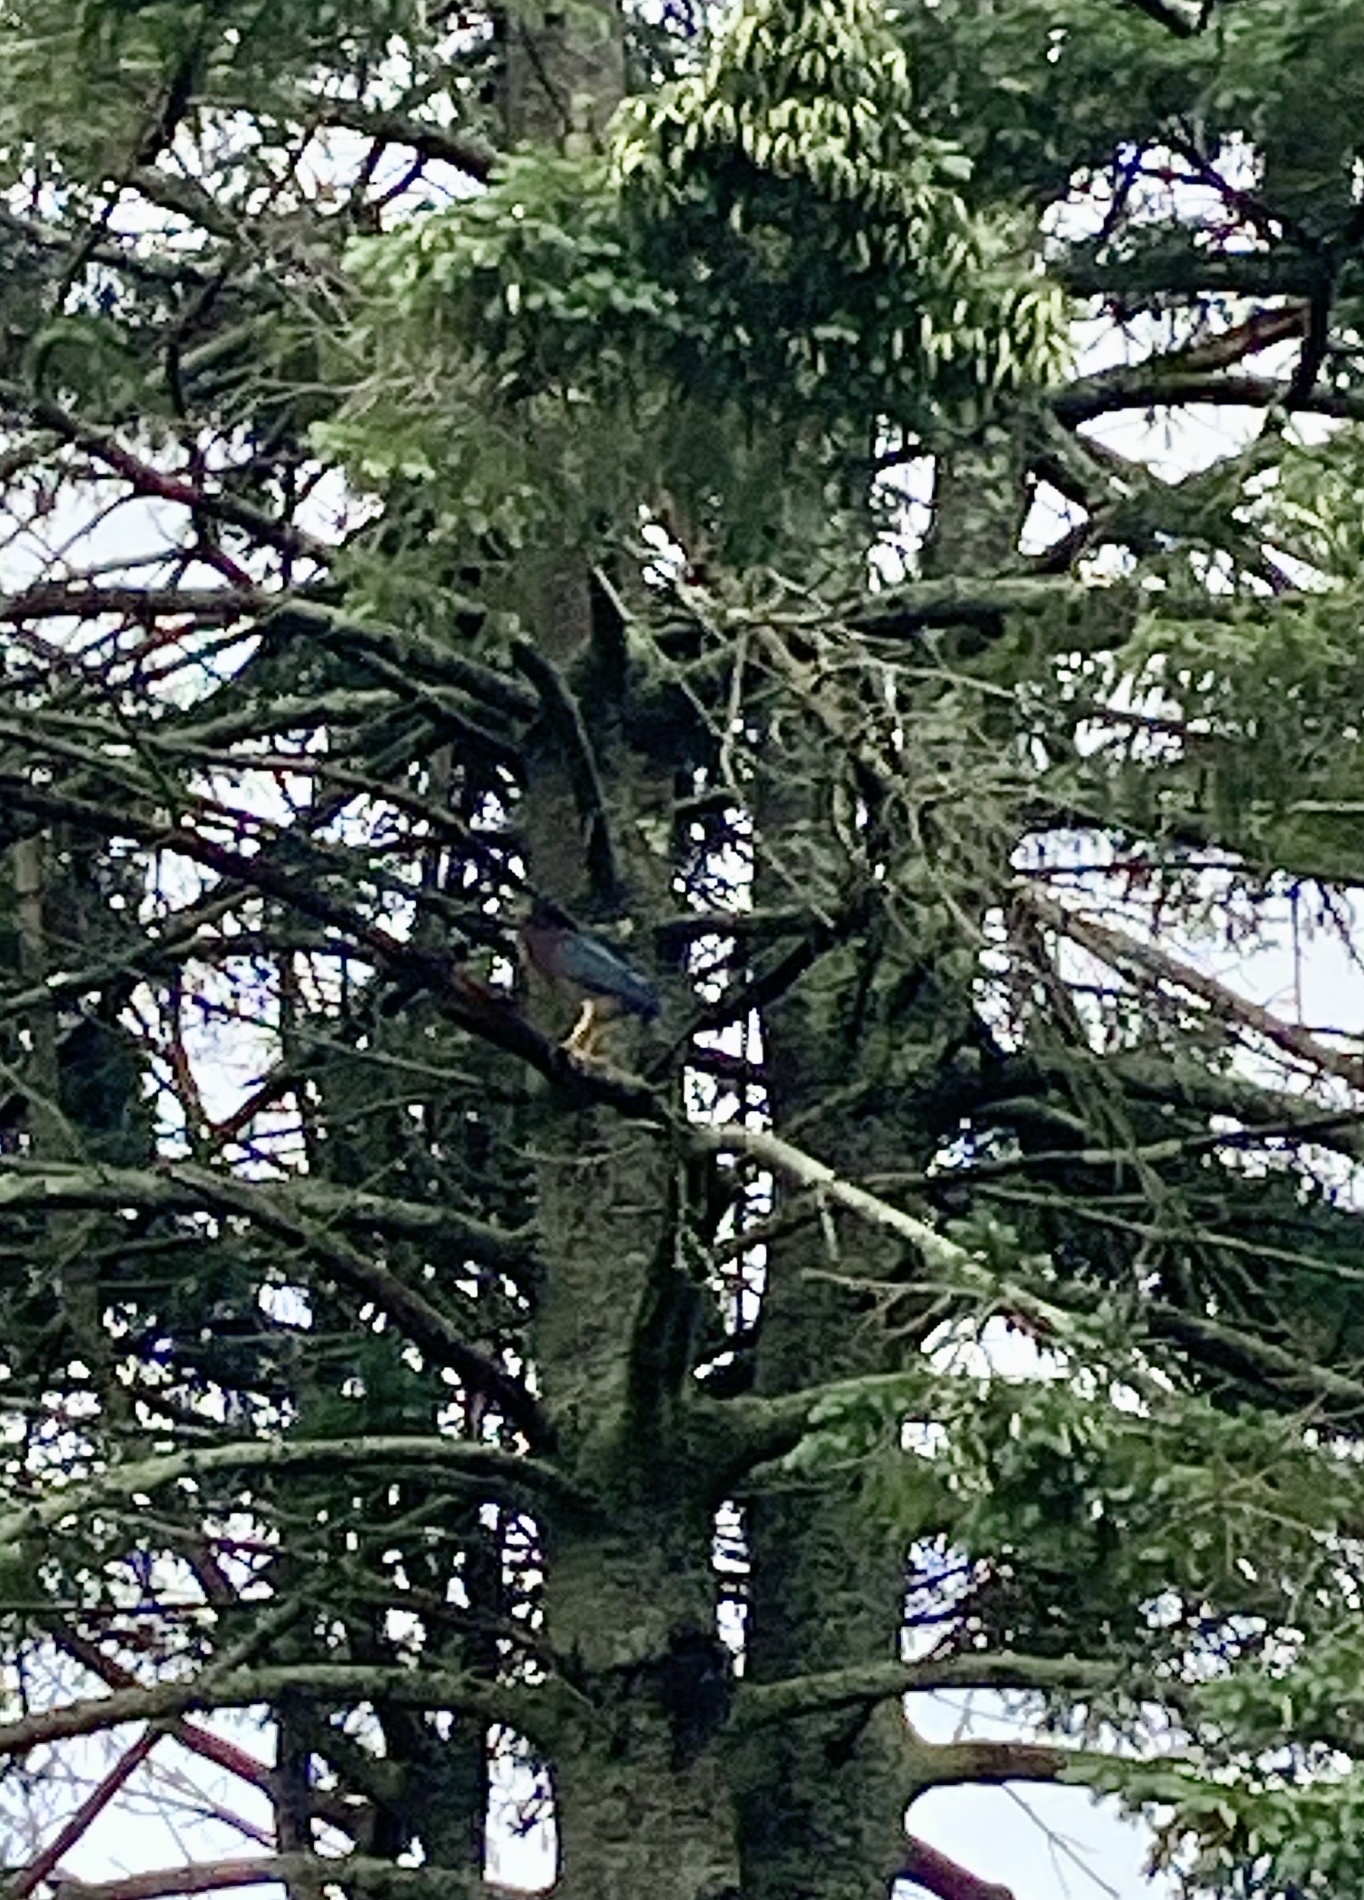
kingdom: Animalia
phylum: Chordata
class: Aves
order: Pelecaniformes
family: Ardeidae
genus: Butorides
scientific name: Butorides virescens
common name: Green heron
